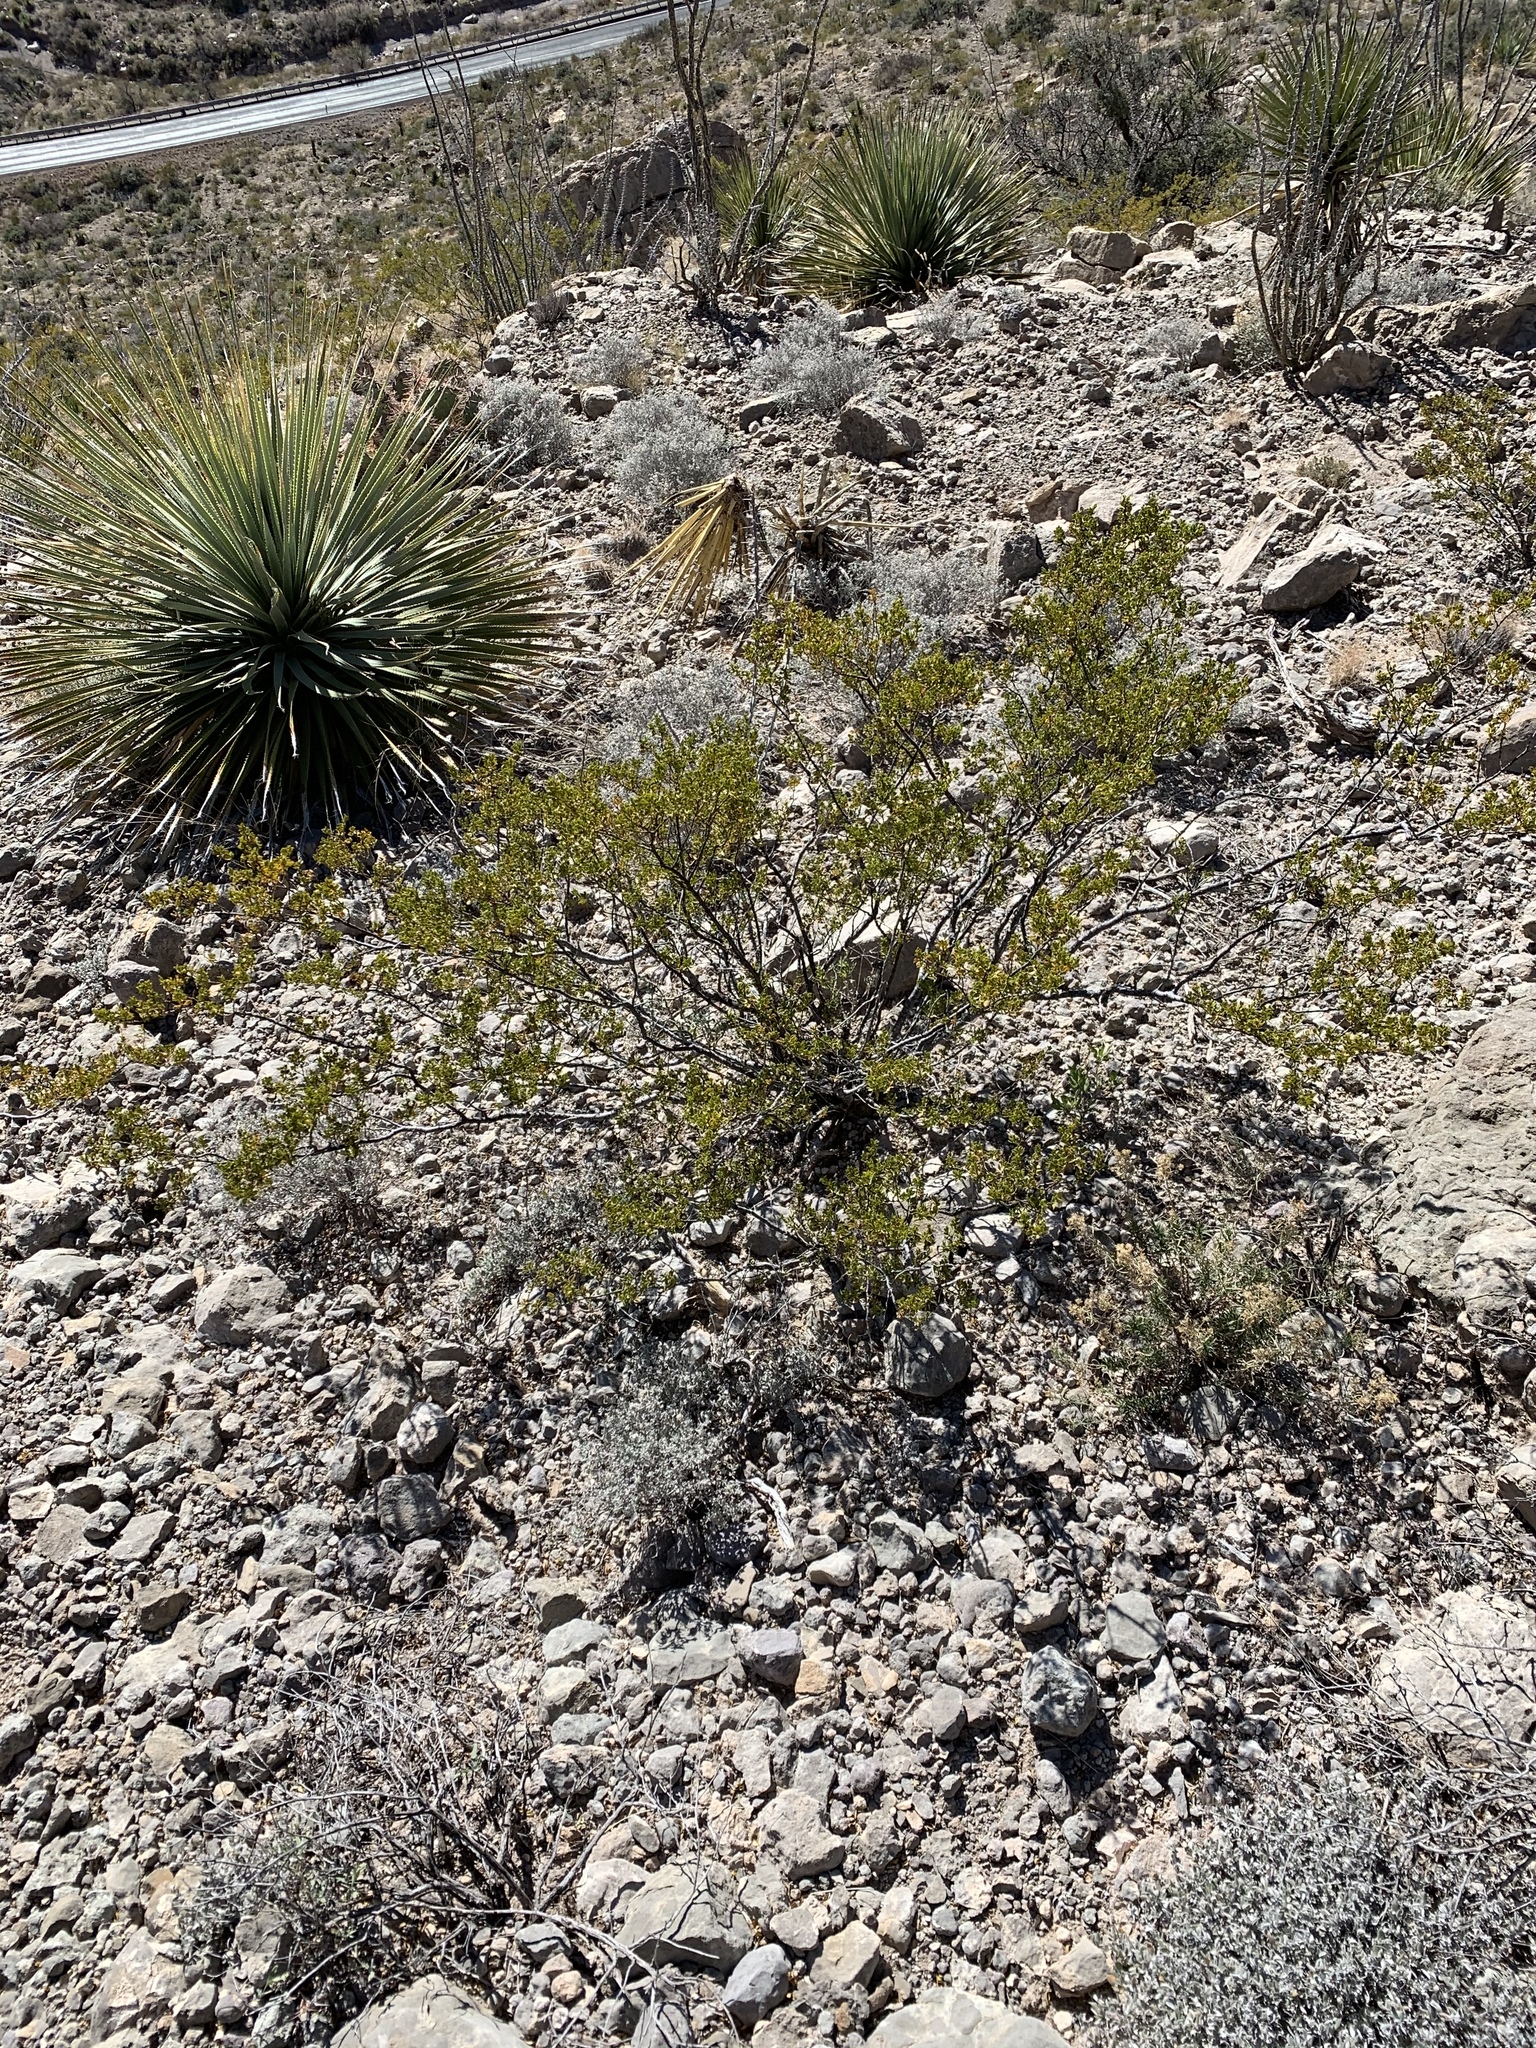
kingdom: Plantae
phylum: Tracheophyta
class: Magnoliopsida
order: Zygophyllales
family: Zygophyllaceae
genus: Larrea
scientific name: Larrea tridentata
